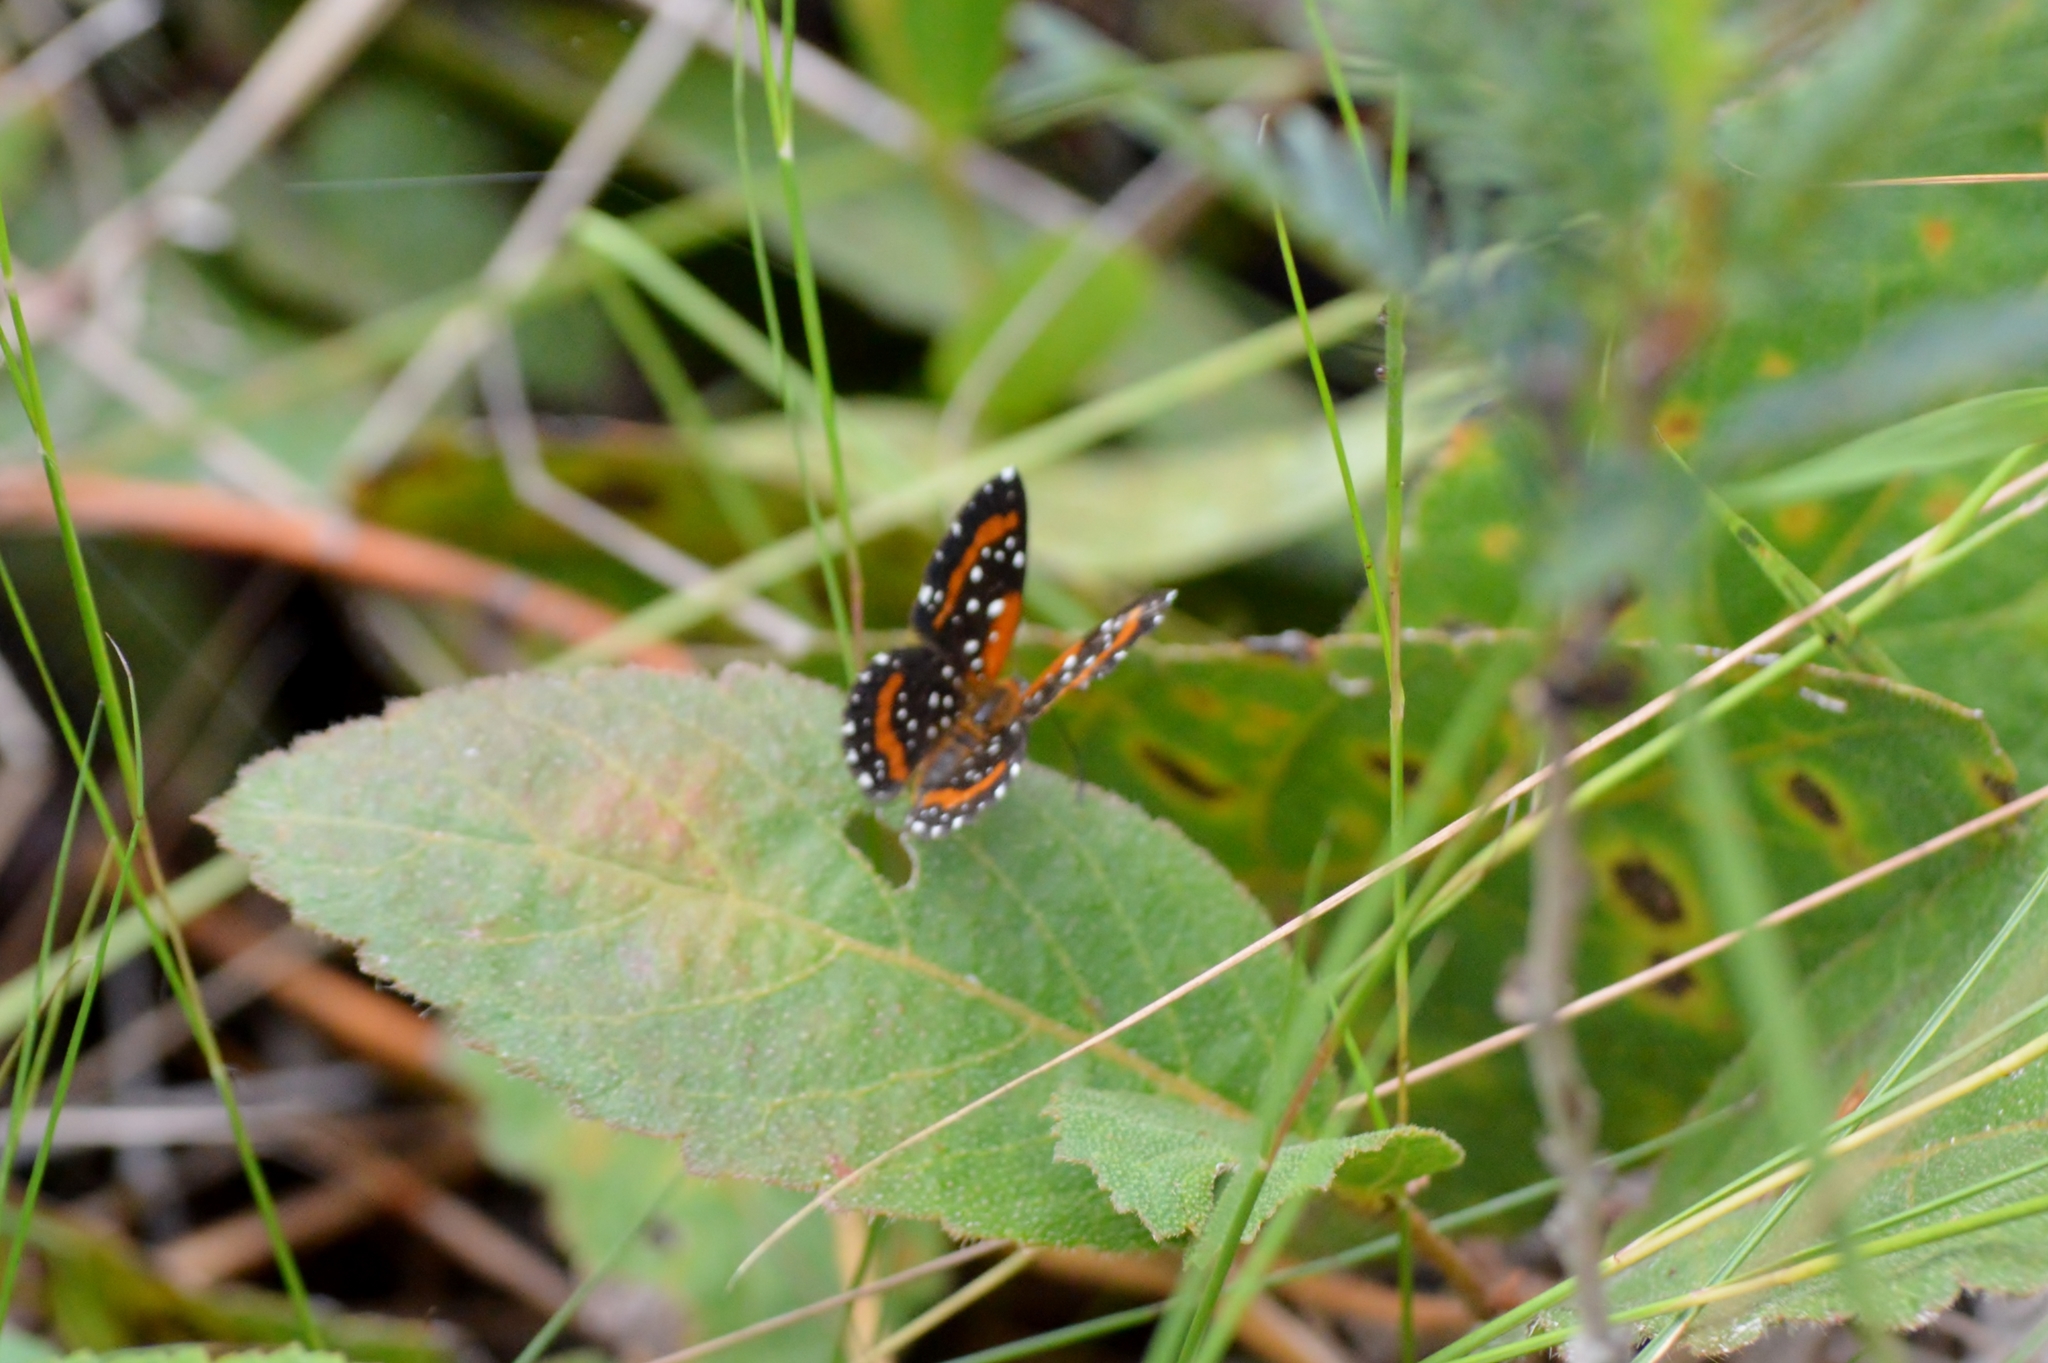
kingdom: Animalia
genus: Lemonias
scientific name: Lemonias
